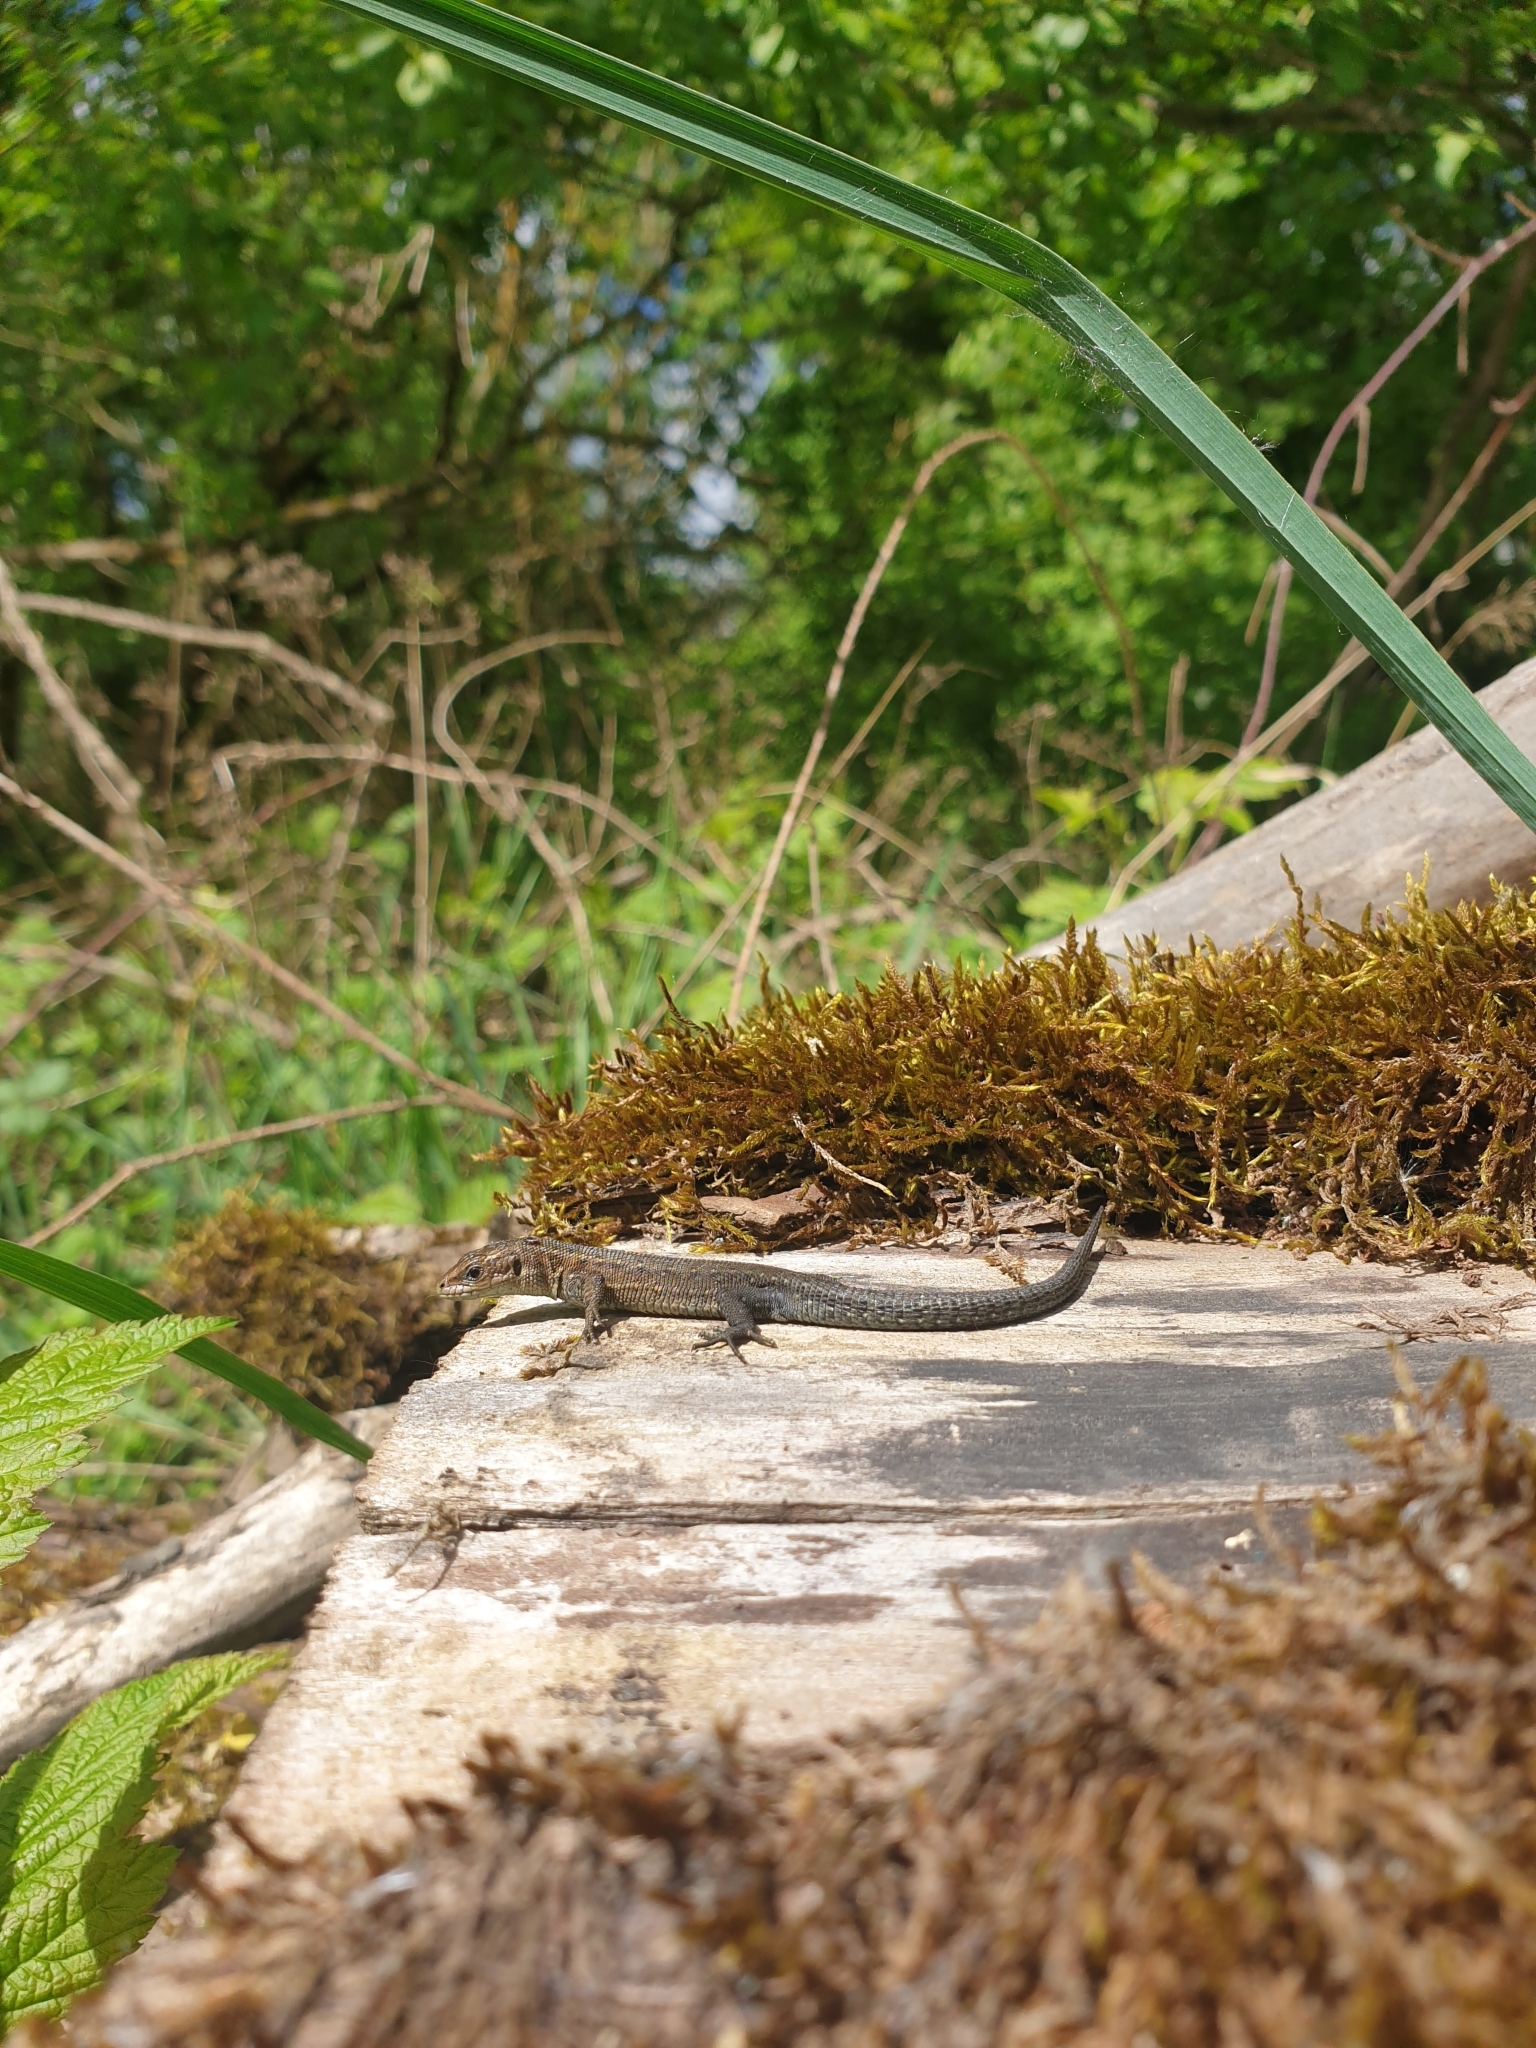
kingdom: Animalia
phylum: Chordata
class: Squamata
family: Lacertidae
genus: Zootoca
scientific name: Zootoca vivipara
